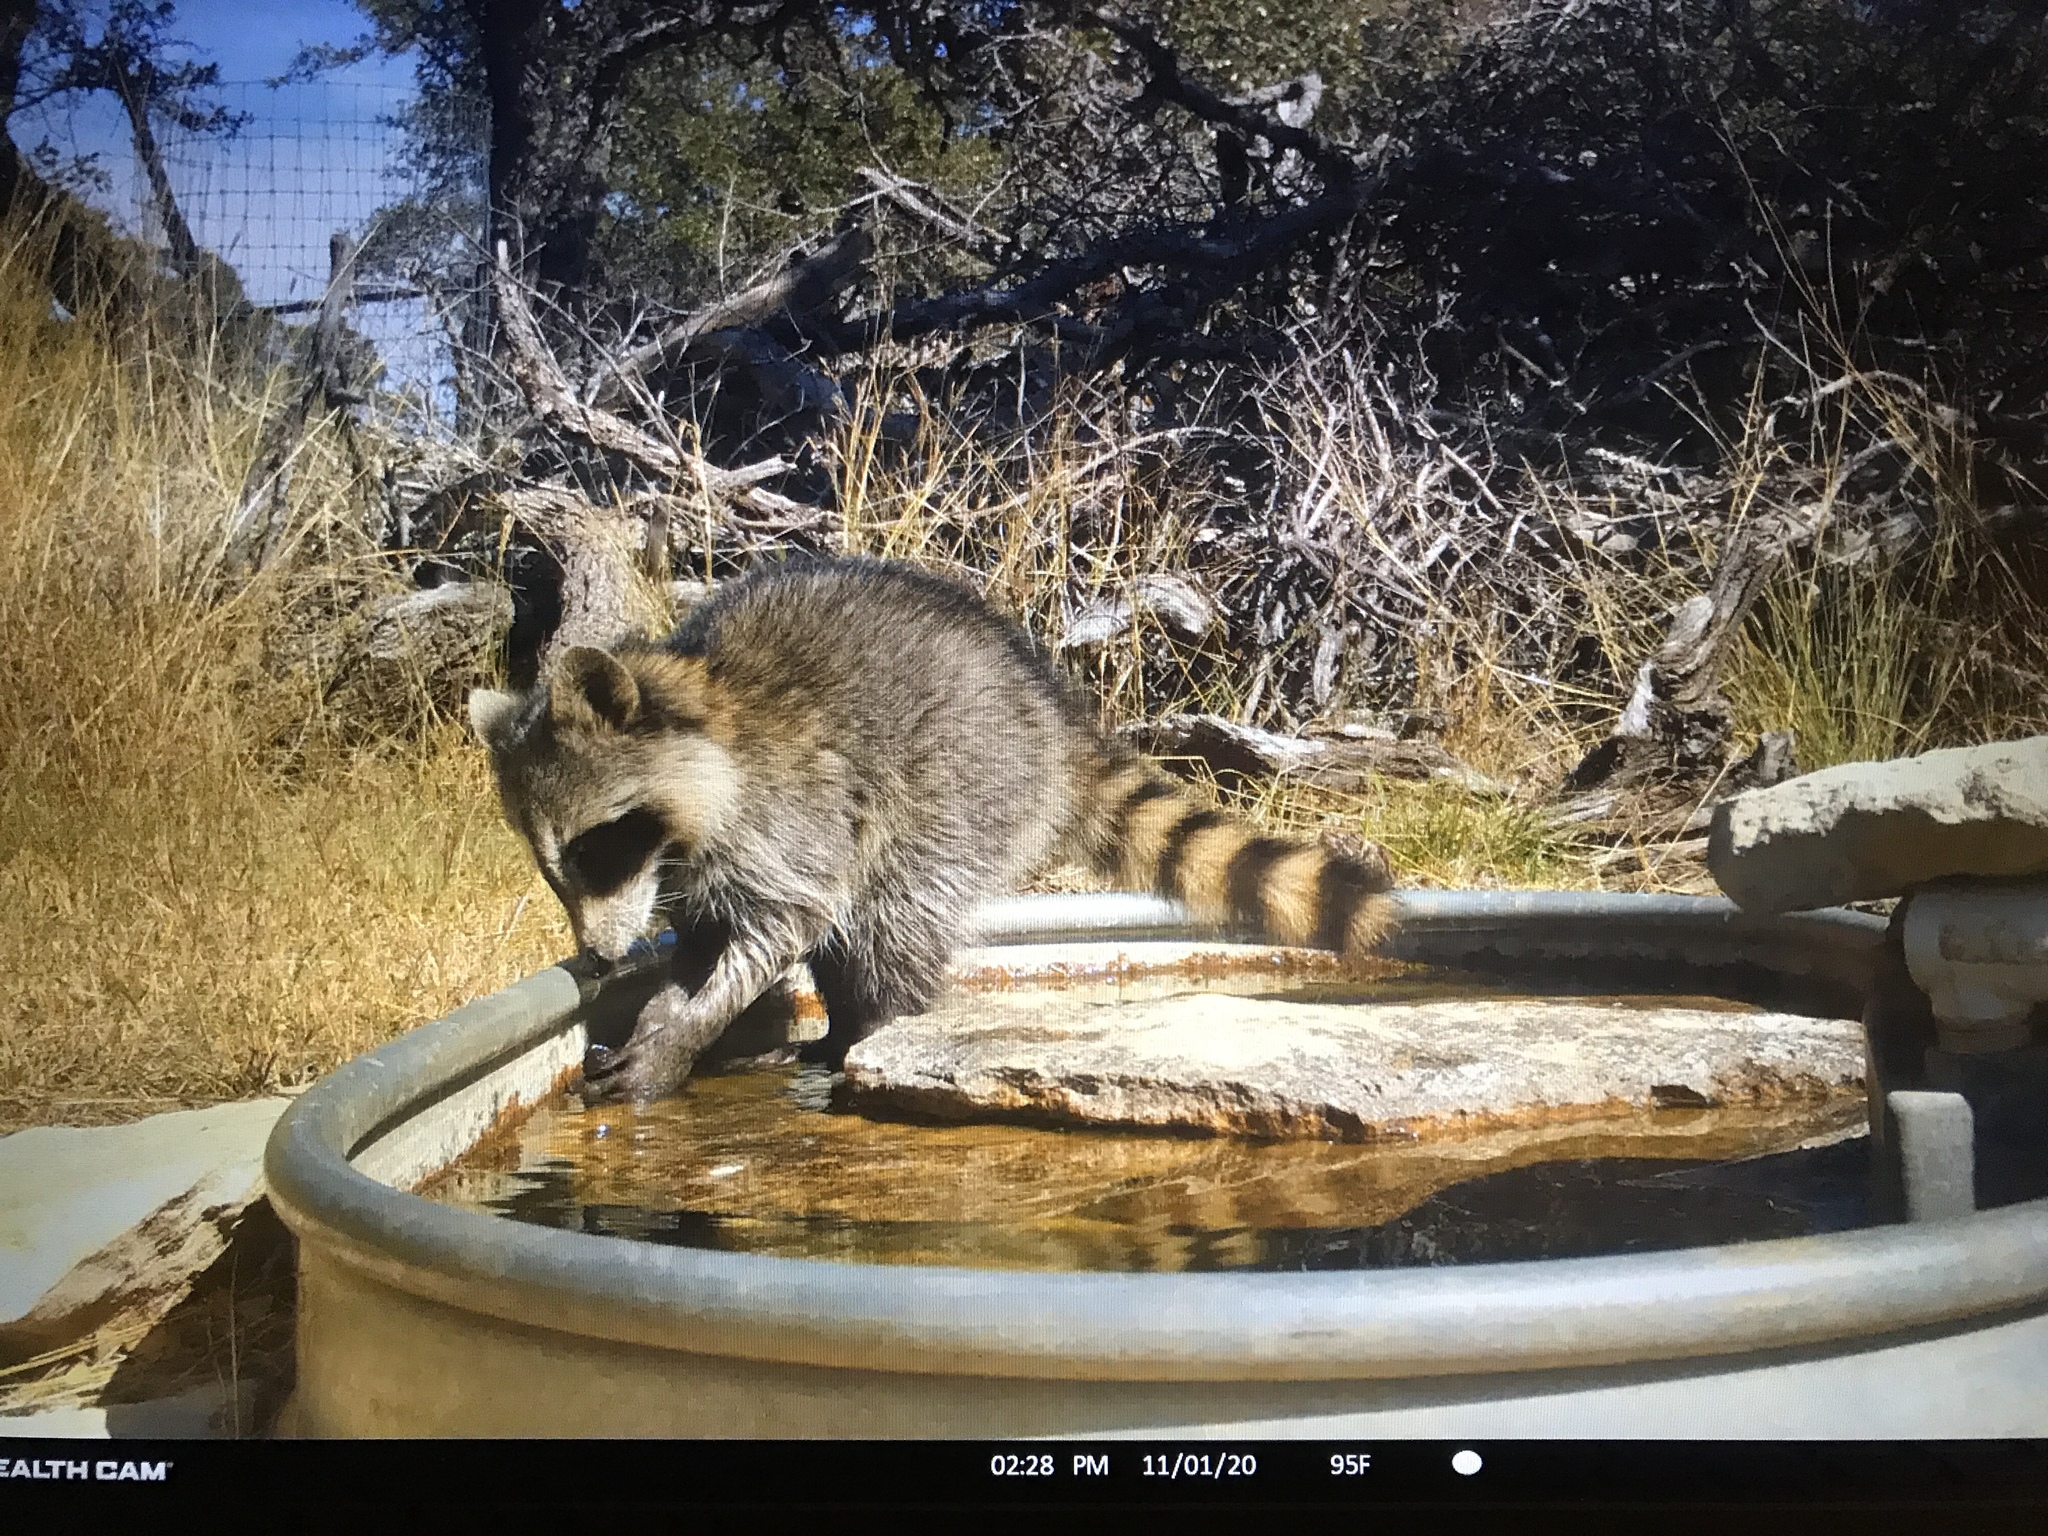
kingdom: Animalia
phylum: Chordata
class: Mammalia
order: Carnivora
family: Procyonidae
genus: Procyon
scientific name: Procyon lotor
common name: Raccoon
